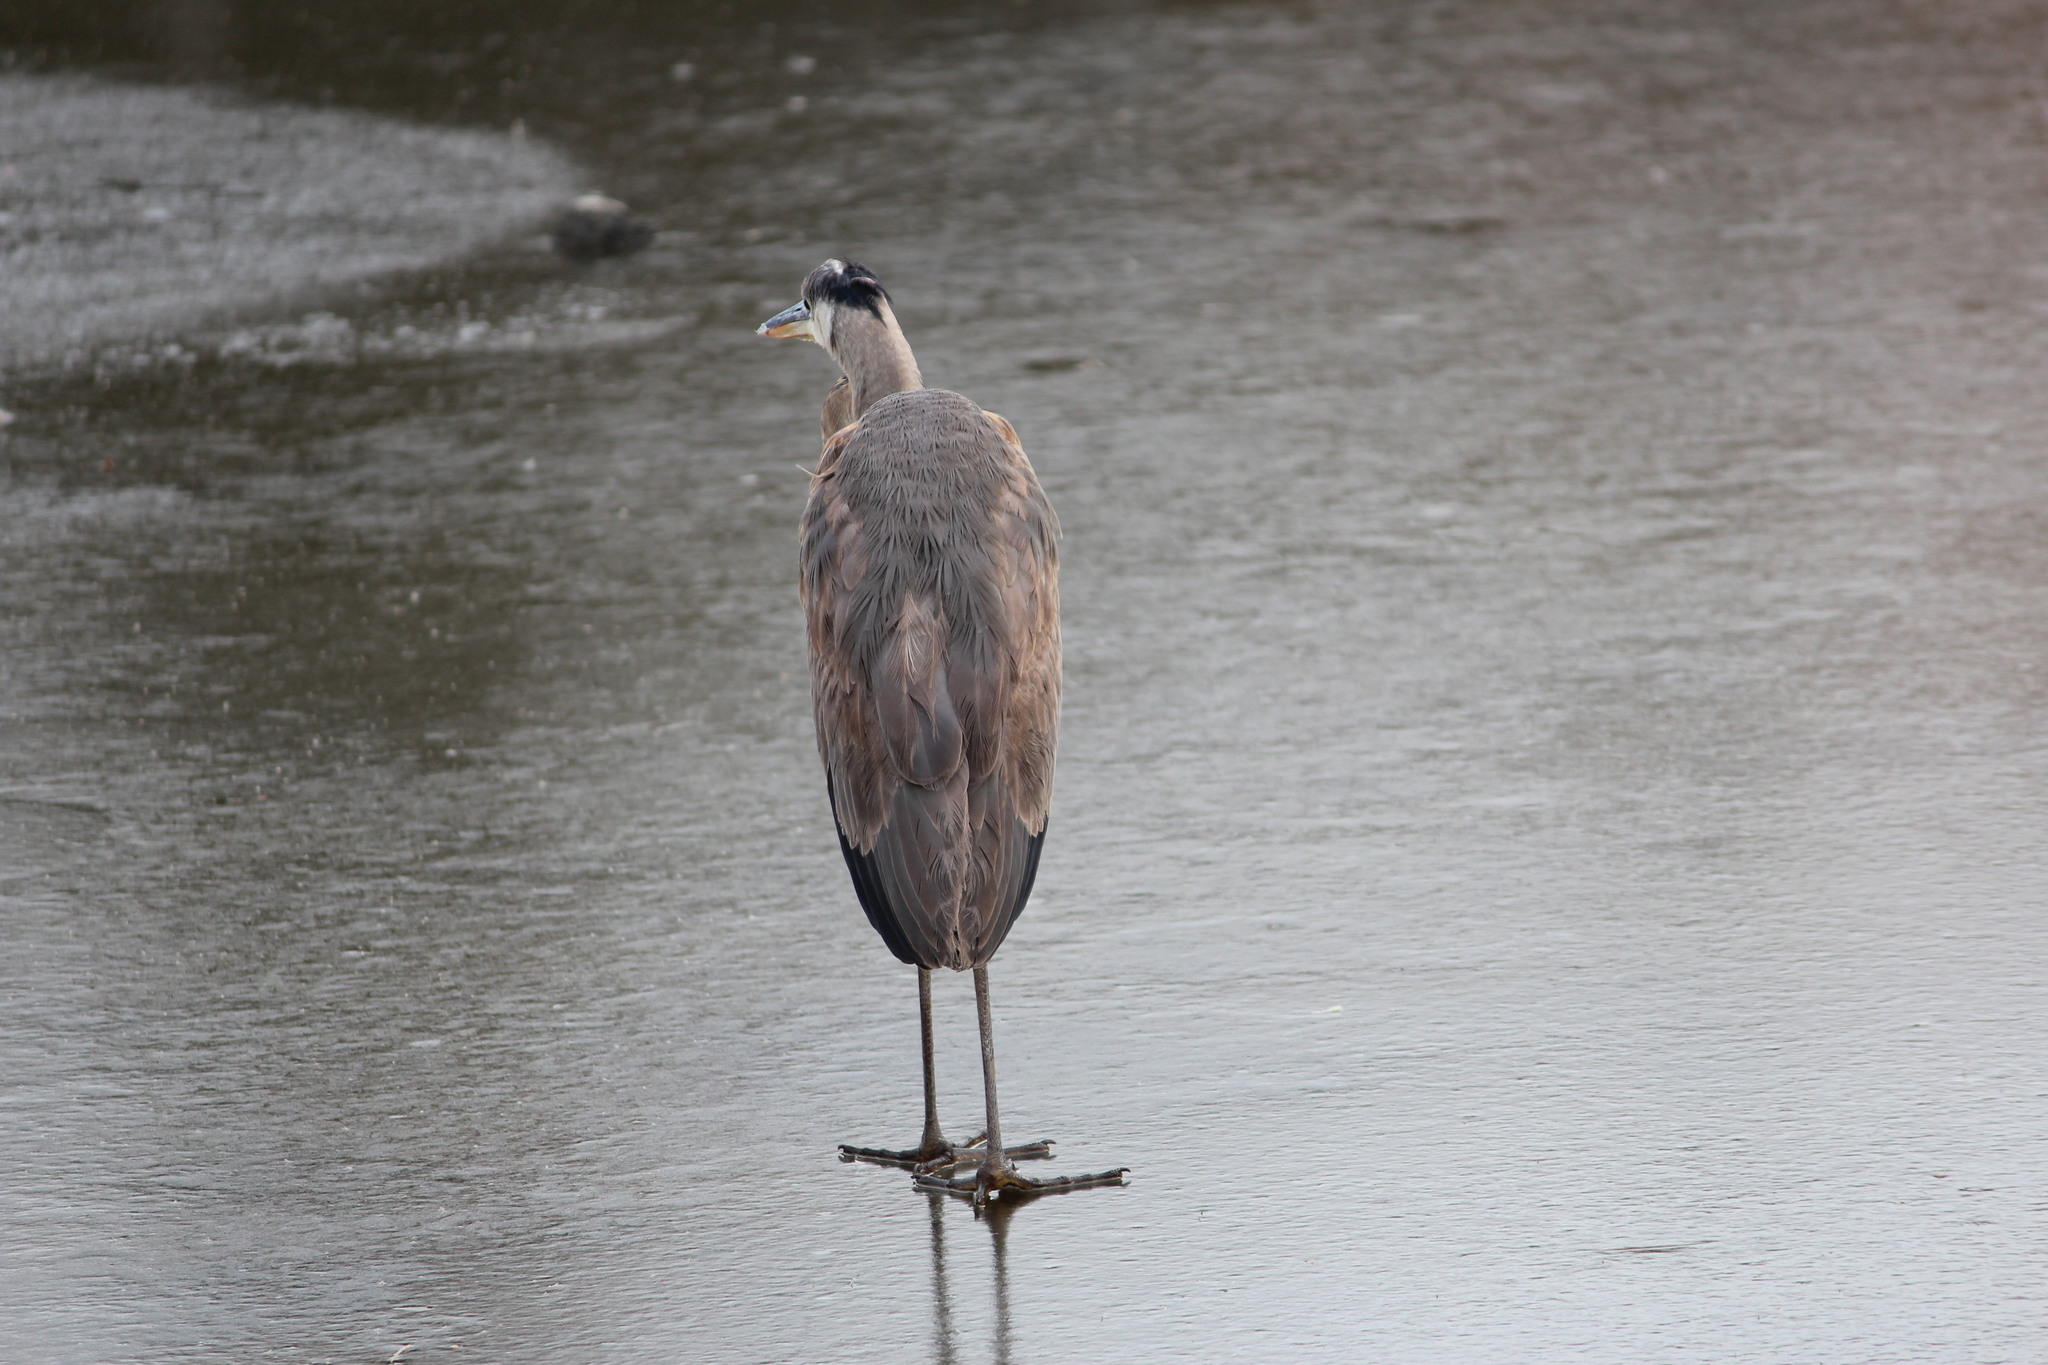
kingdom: Animalia
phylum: Chordata
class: Aves
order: Pelecaniformes
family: Ardeidae
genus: Ardea
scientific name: Ardea herodias
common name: Great blue heron
